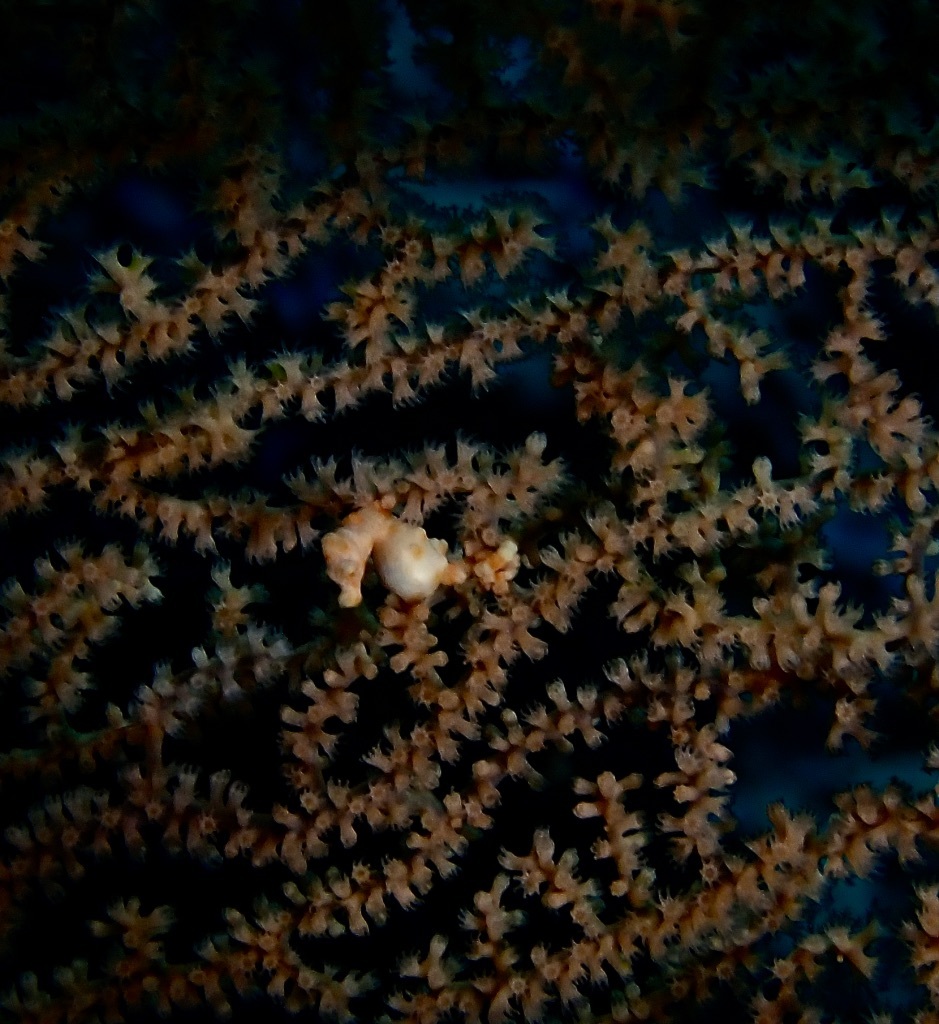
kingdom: Animalia
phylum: Chordata
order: Syngnathiformes
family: Syngnathidae
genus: Hippocampus
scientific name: Hippocampus denise
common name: Denise's pygmy seahorse
